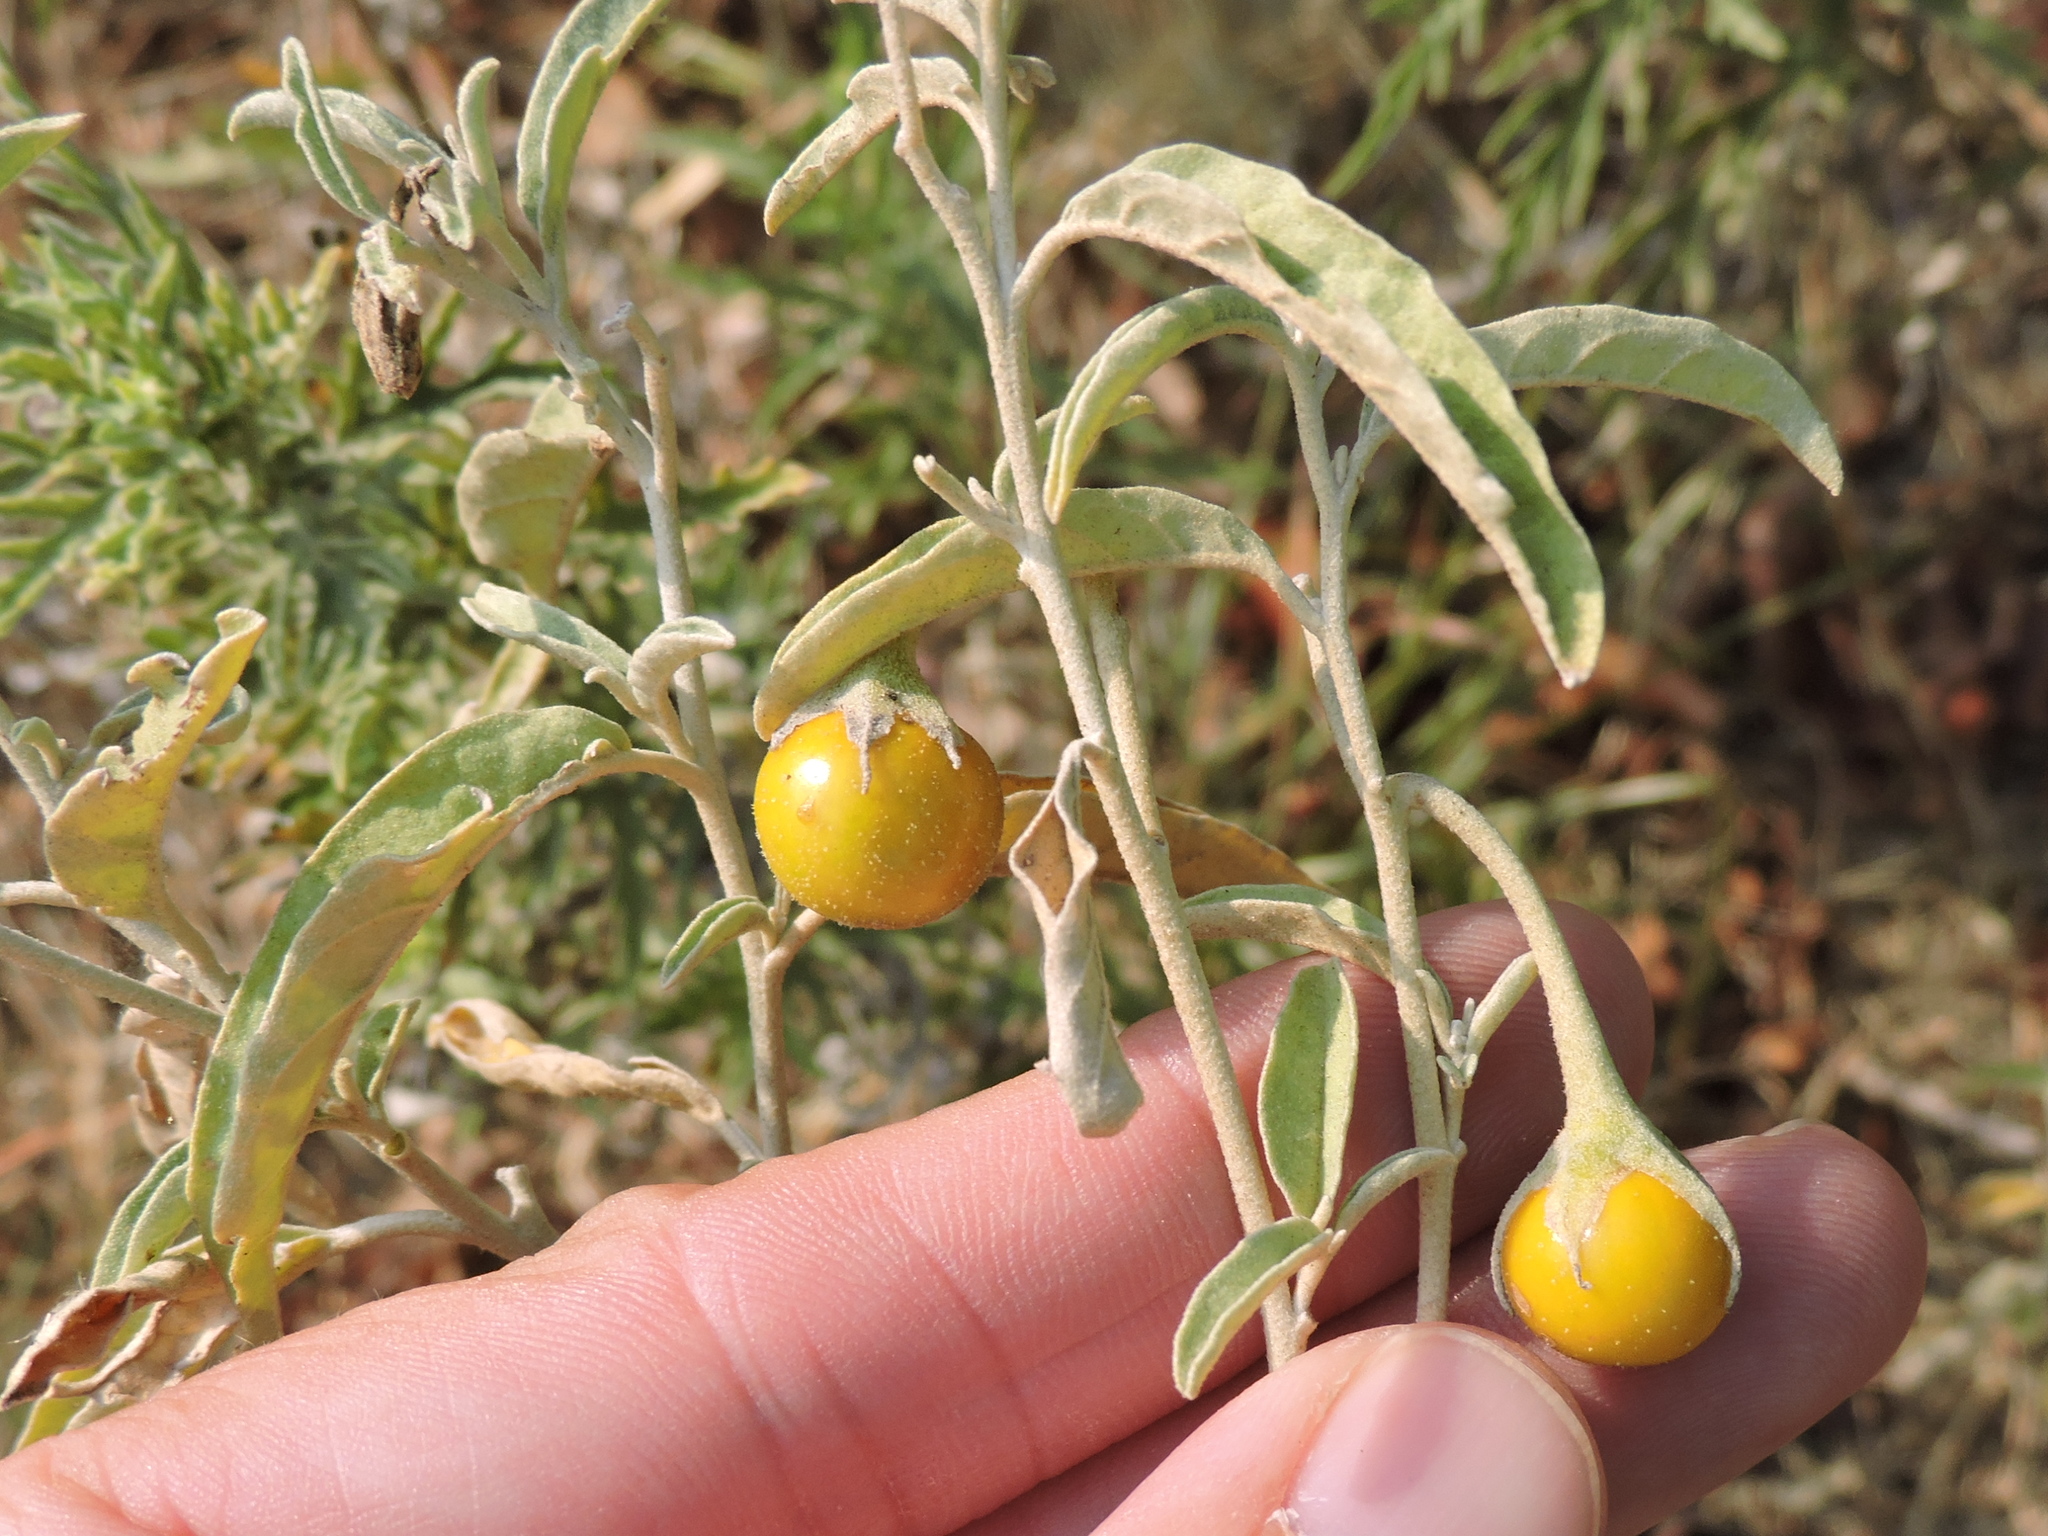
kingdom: Plantae
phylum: Tracheophyta
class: Magnoliopsida
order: Solanales
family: Solanaceae
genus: Solanum
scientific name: Solanum elaeagnifolium
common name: Silverleaf nightshade
